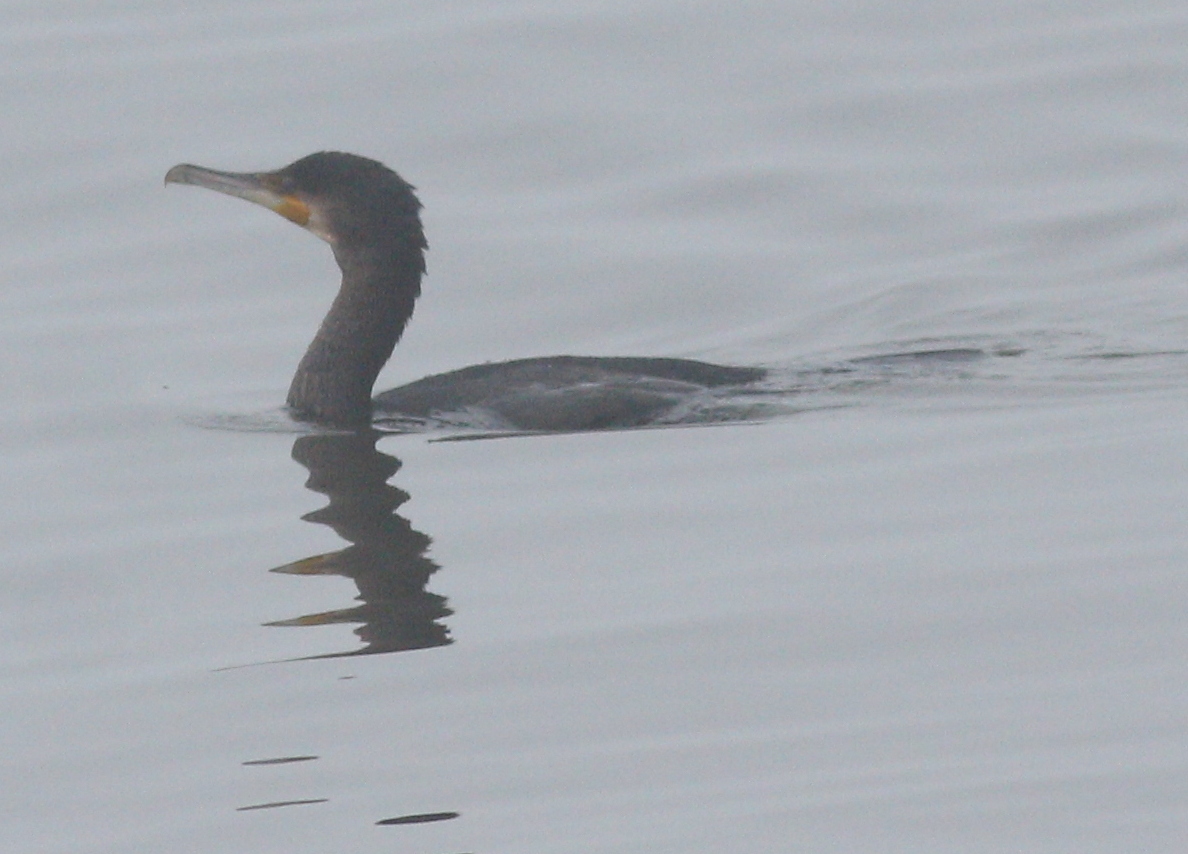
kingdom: Animalia
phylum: Chordata
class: Aves
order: Suliformes
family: Phalacrocoracidae
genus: Phalacrocorax
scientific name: Phalacrocorax carbo
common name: Great cormorant
